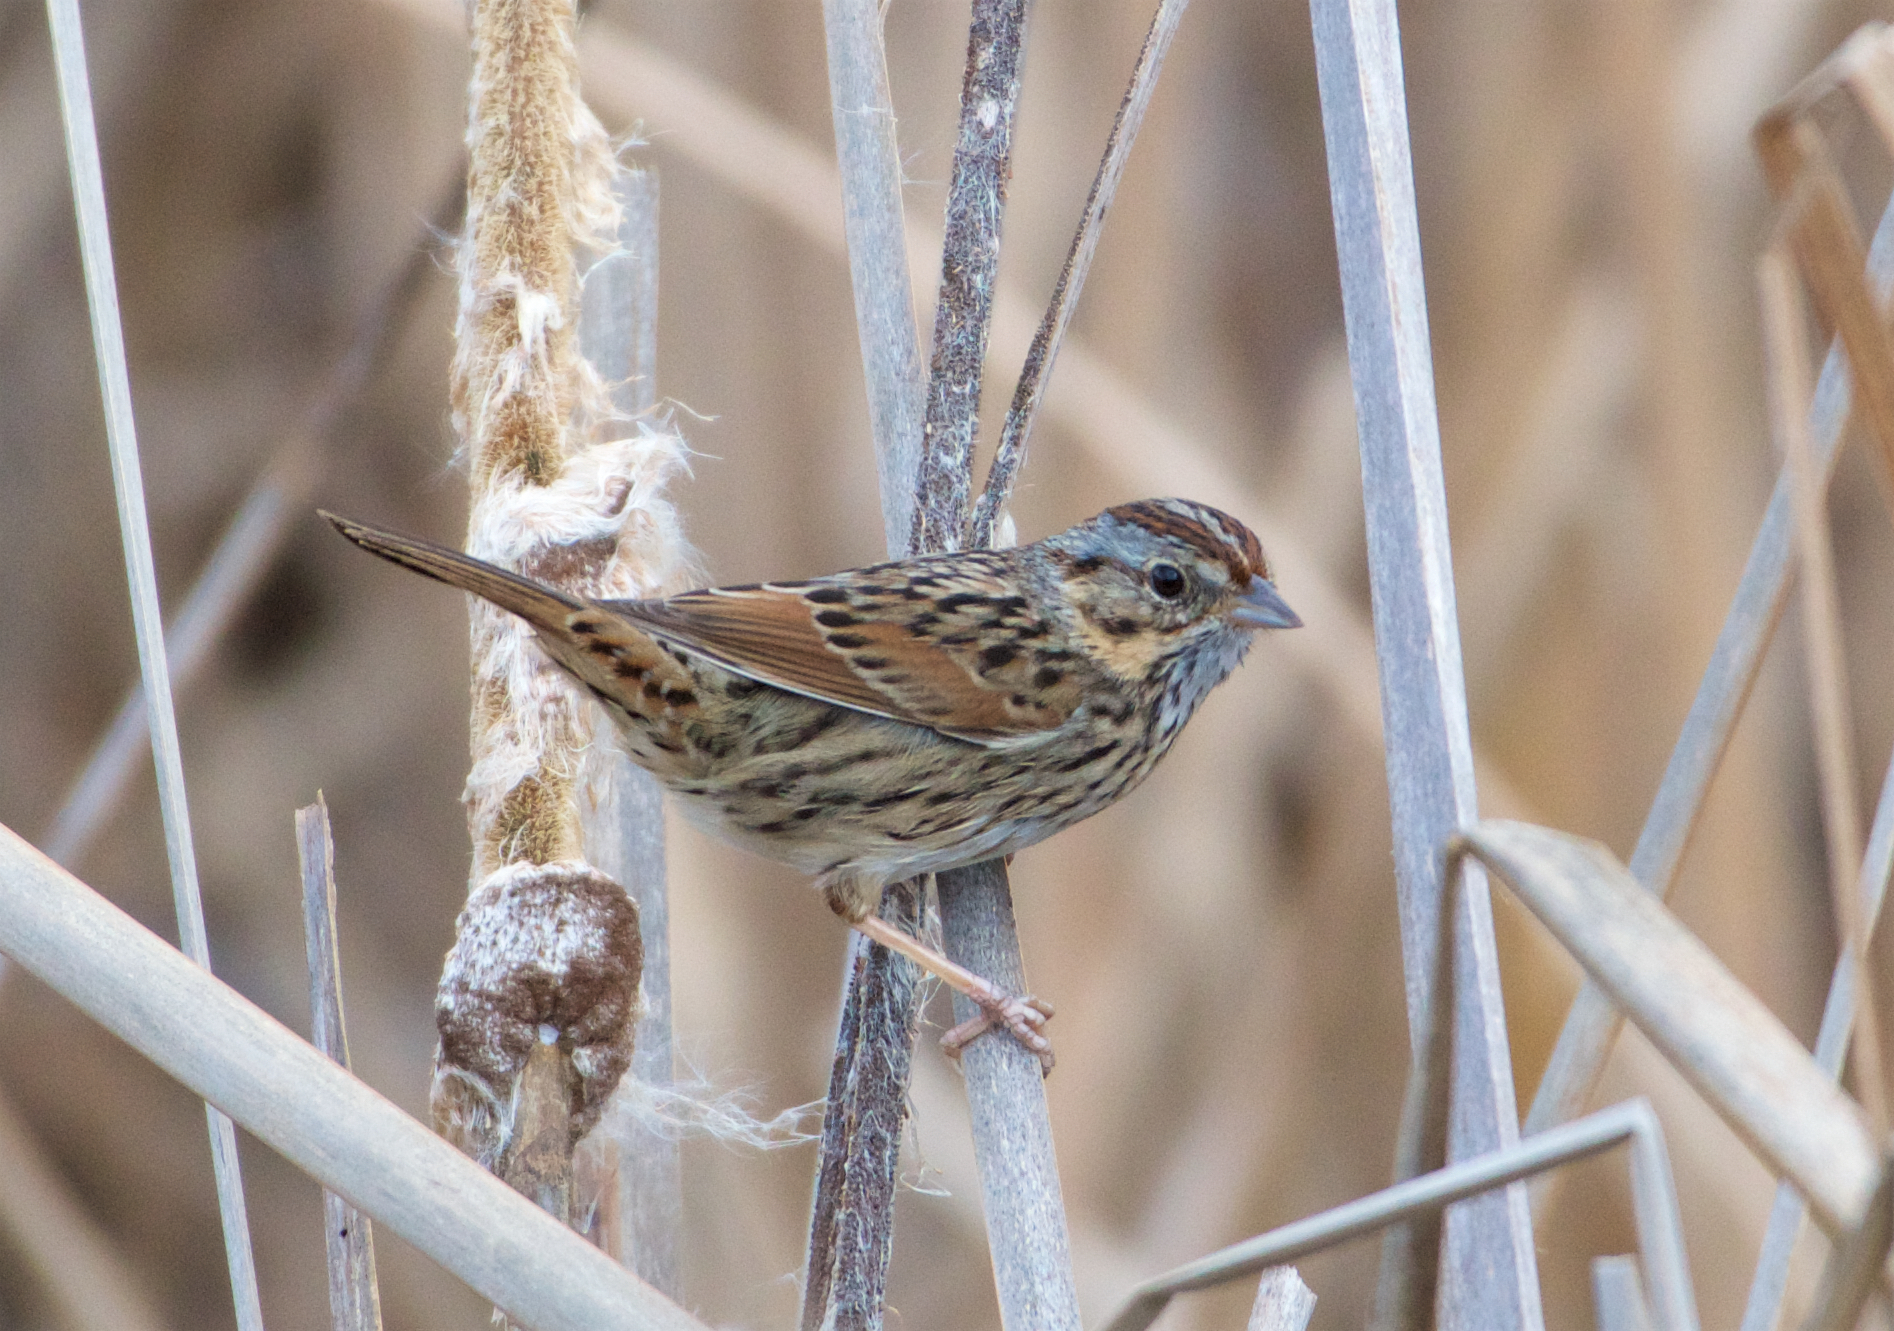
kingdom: Animalia
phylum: Chordata
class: Aves
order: Passeriformes
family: Passerellidae
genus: Melospiza
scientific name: Melospiza lincolnii
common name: Lincoln's sparrow
